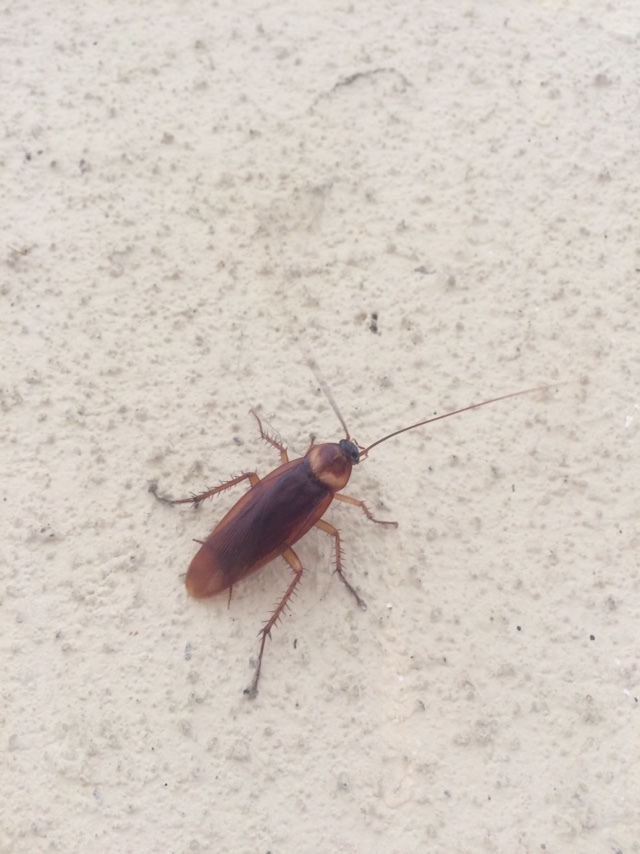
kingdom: Animalia
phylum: Arthropoda
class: Insecta
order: Blattodea
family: Blattidae
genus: Periplaneta
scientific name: Periplaneta americana
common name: American cockroach
